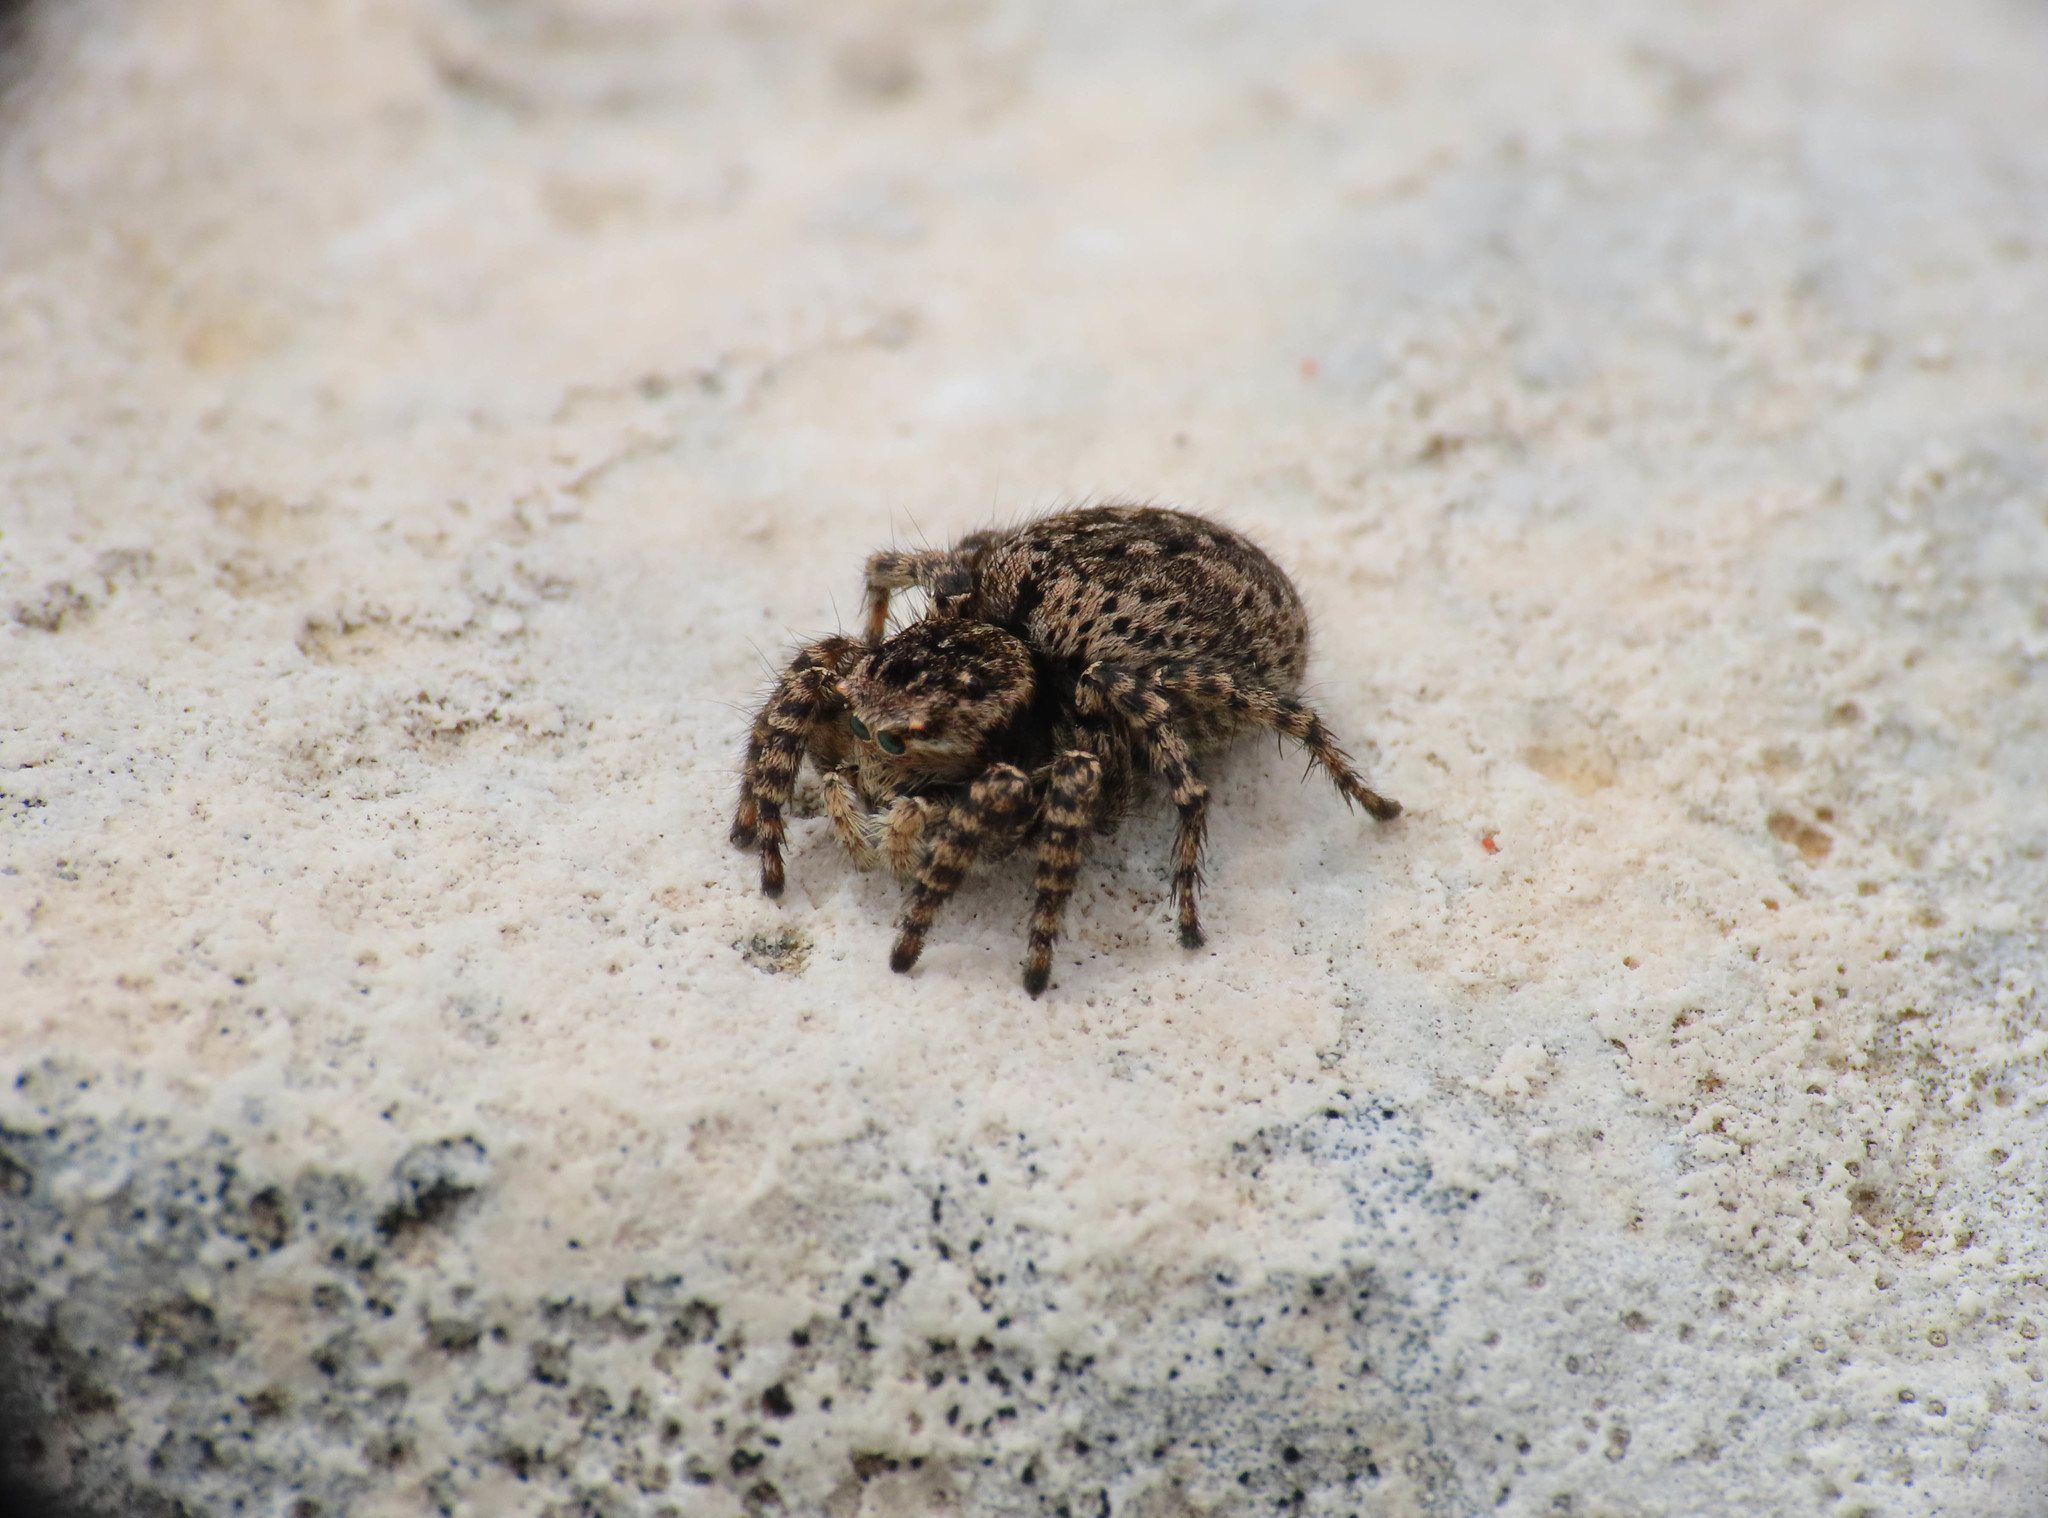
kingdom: Animalia
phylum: Arthropoda
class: Arachnida
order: Araneae
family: Salticidae
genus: Aelurillus
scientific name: Aelurillus v-insignitus
